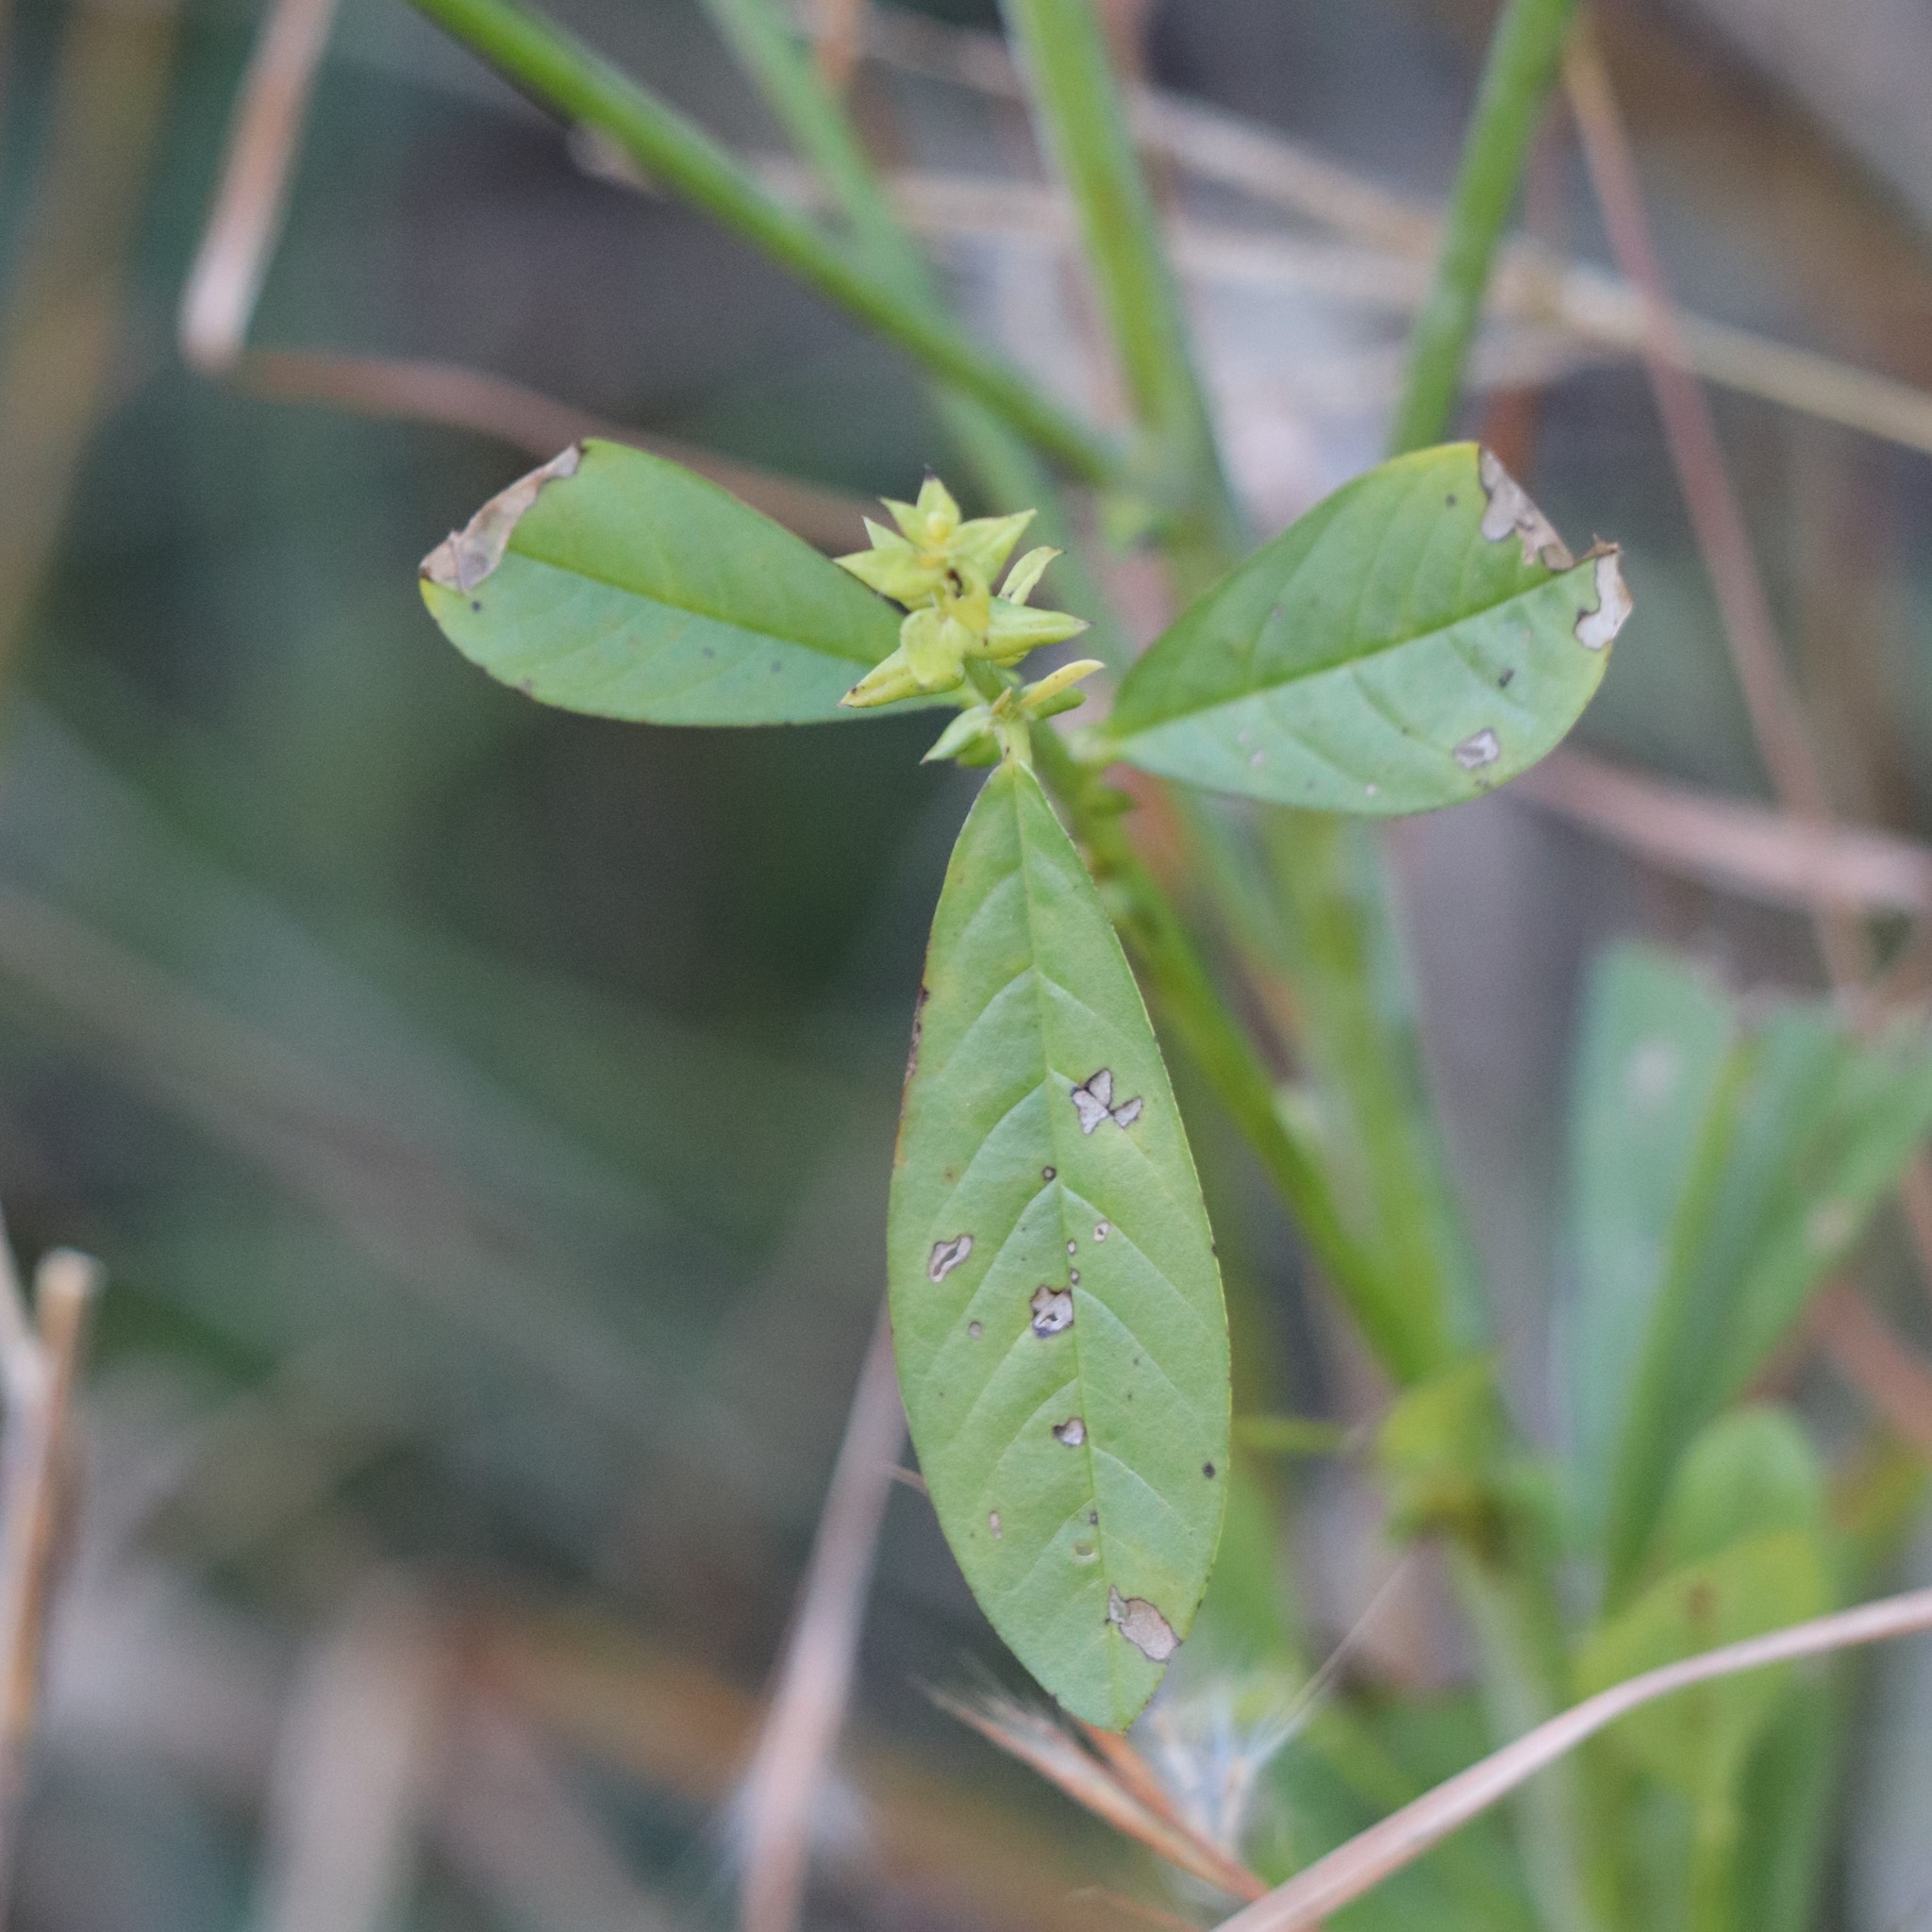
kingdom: Plantae
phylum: Tracheophyta
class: Magnoliopsida
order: Fabales
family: Fabaceae
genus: Crotalaria
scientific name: Crotalaria spectabilis
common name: Showy rattlebox
